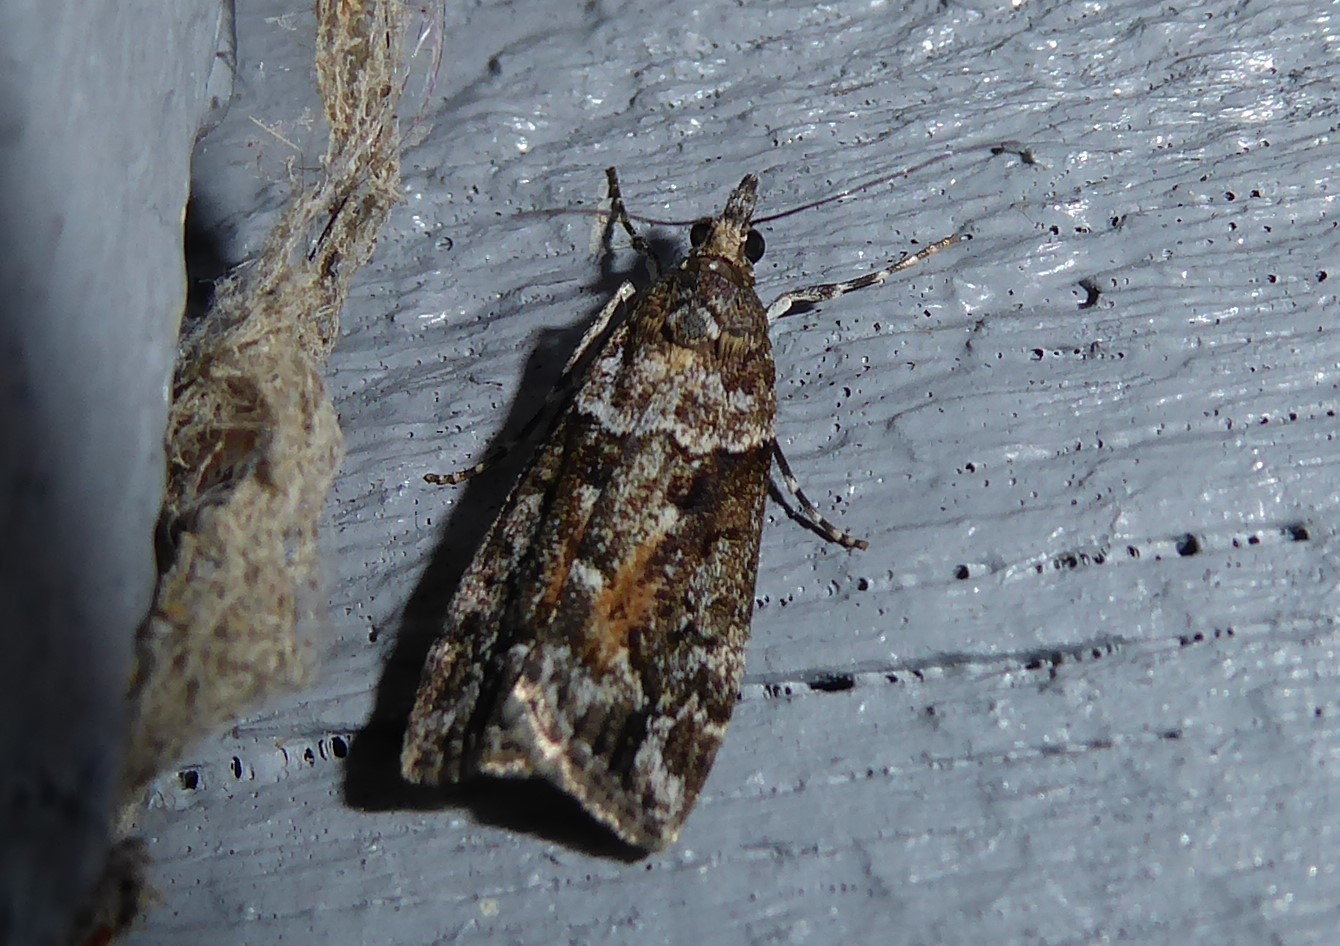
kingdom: Animalia
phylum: Arthropoda
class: Insecta
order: Lepidoptera
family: Crambidae
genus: Eudonia
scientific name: Eudonia submarginalis
